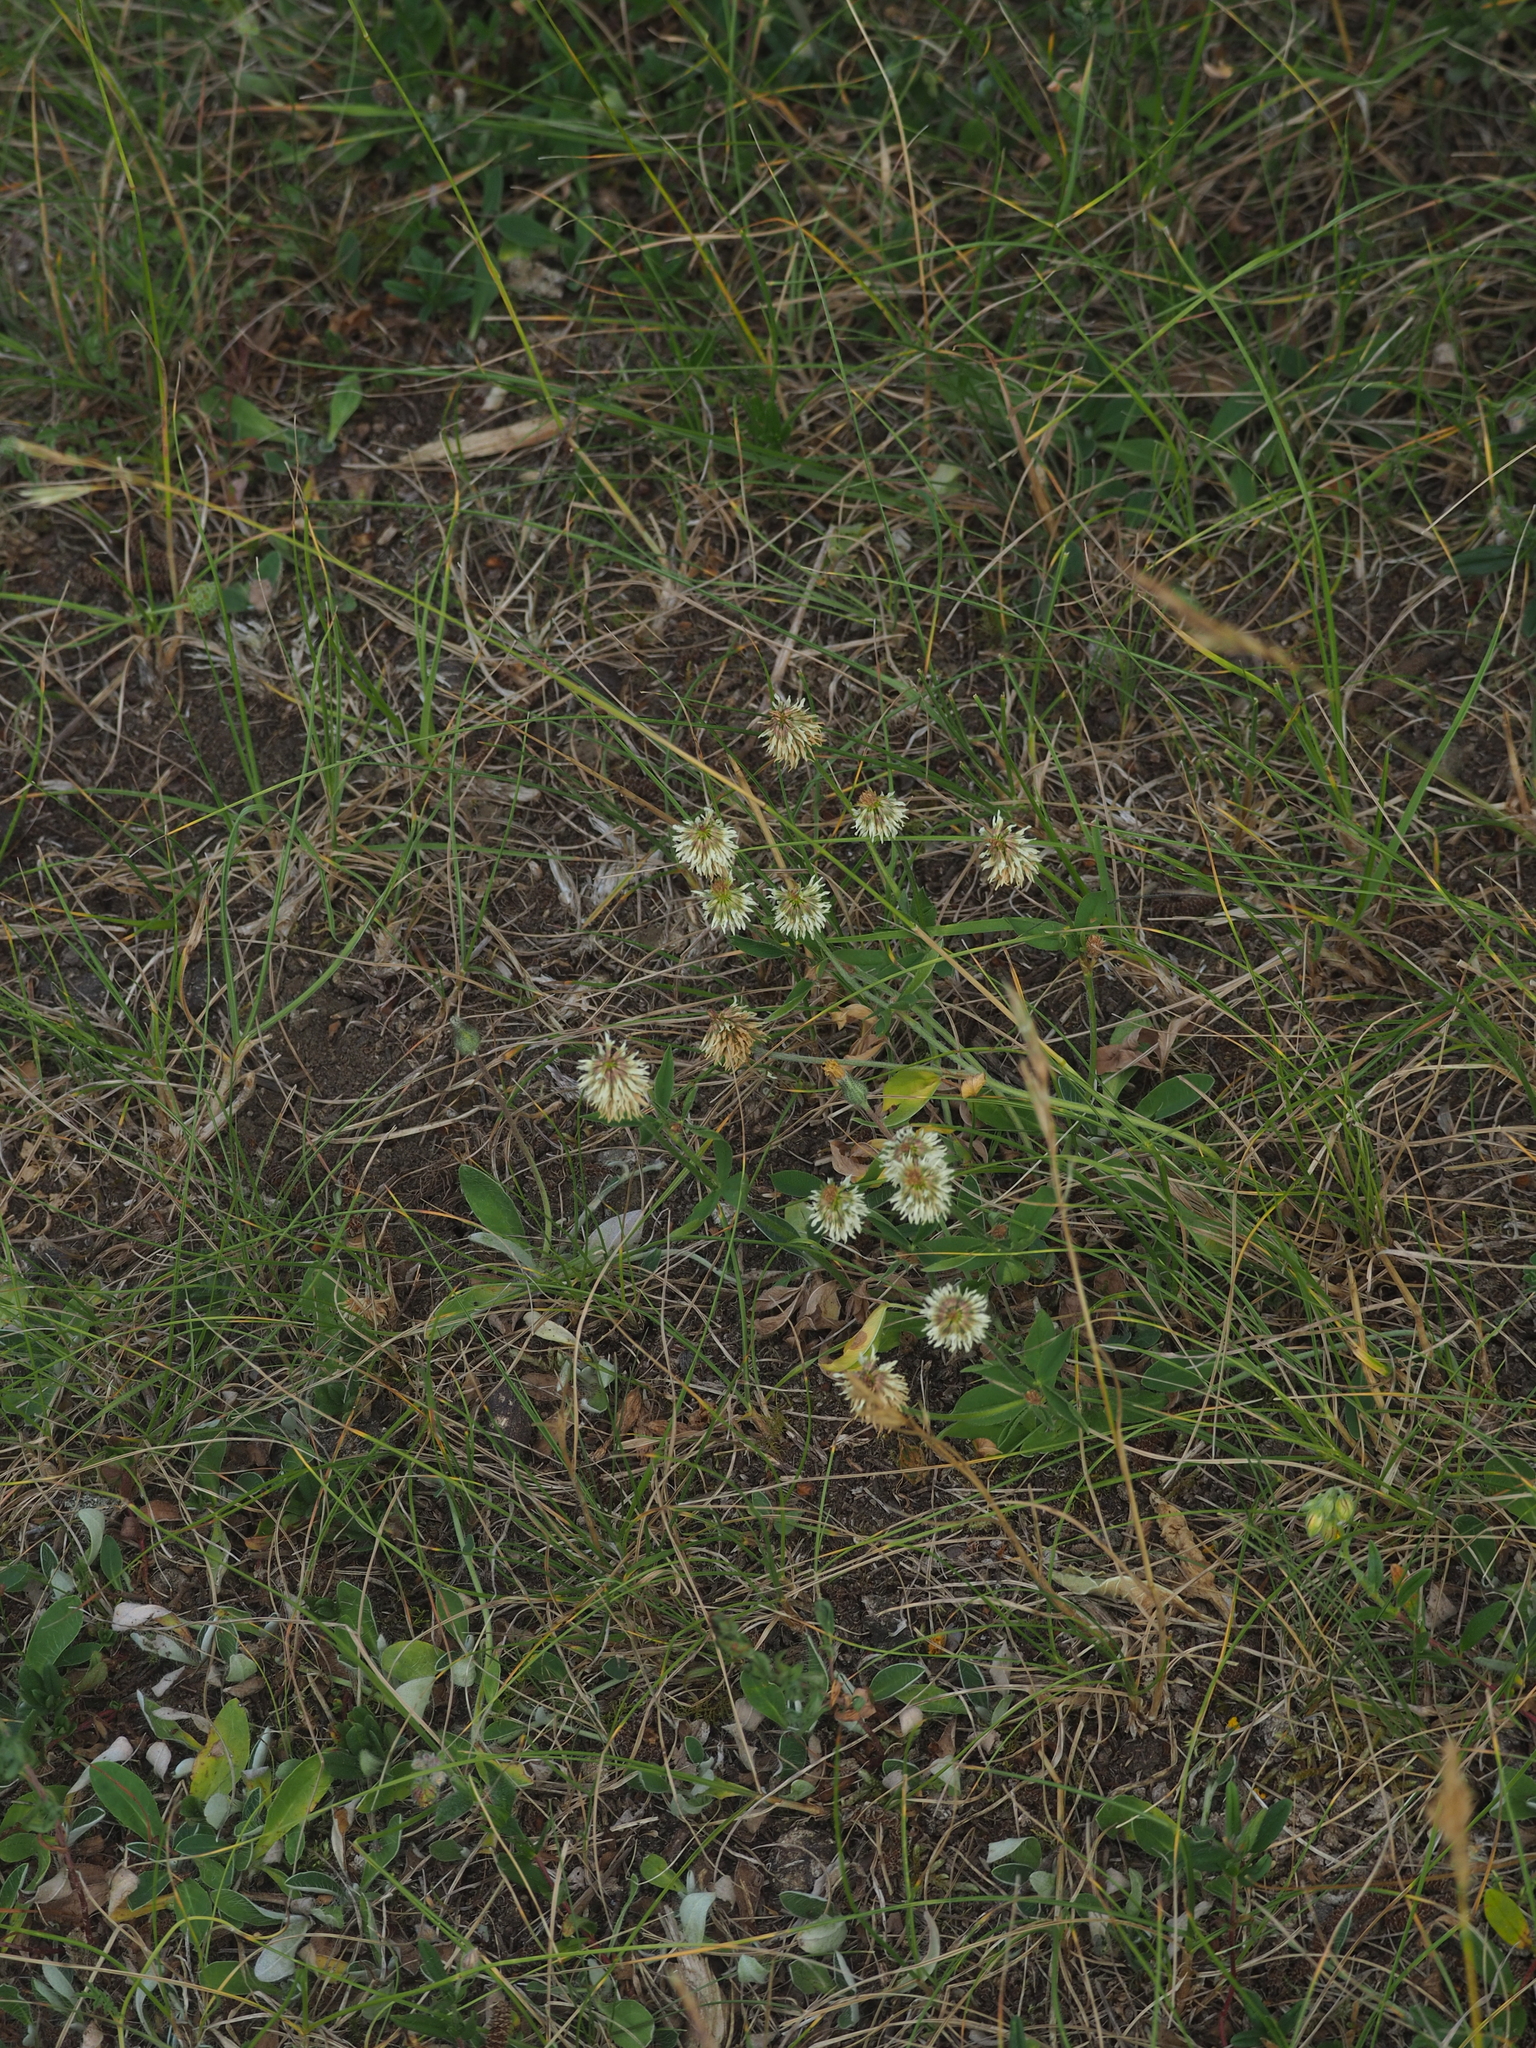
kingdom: Plantae
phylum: Tracheophyta
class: Magnoliopsida
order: Fabales
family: Fabaceae
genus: Trifolium
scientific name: Trifolium montanum
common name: Mountain clover
